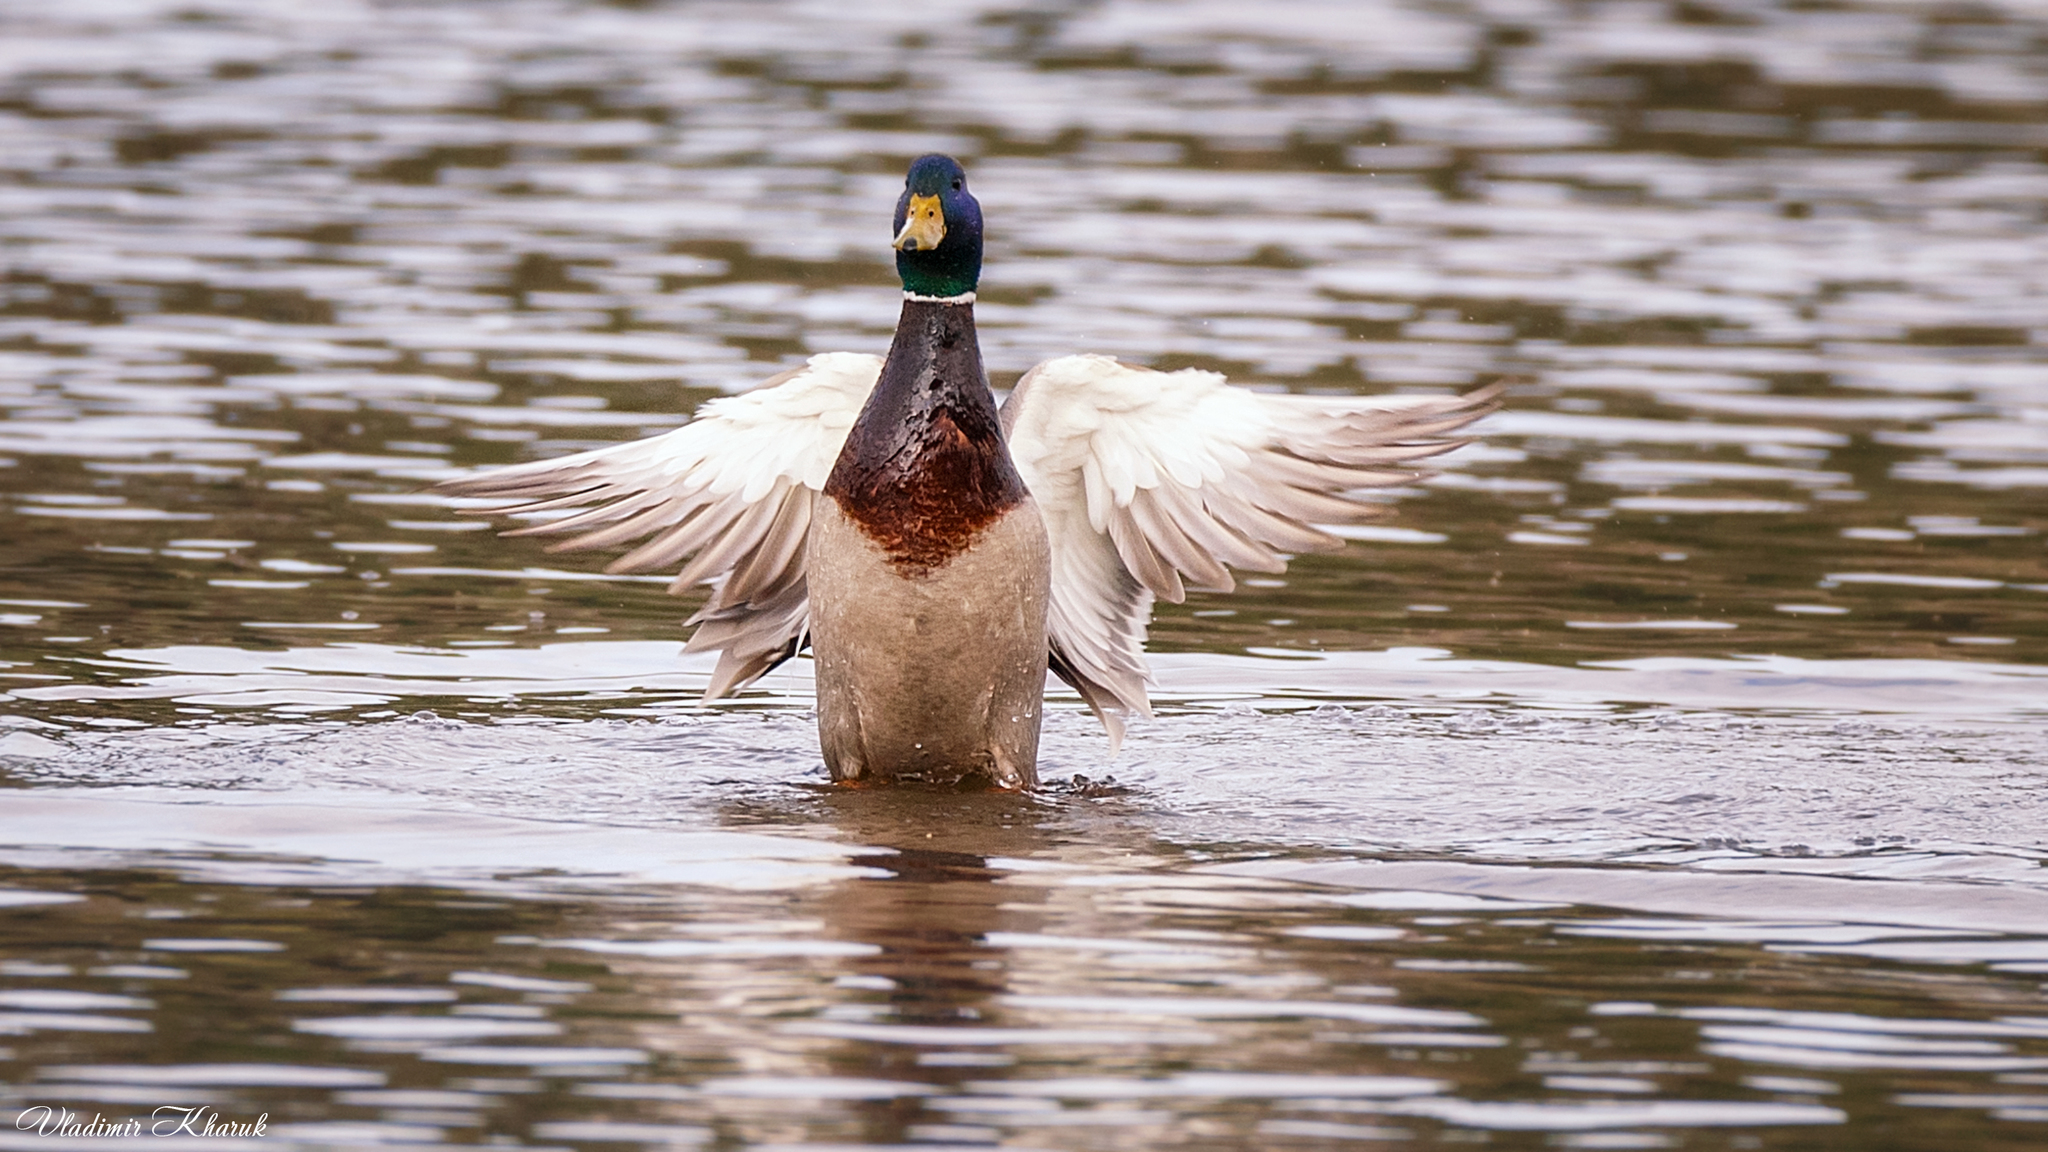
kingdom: Animalia
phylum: Chordata
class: Aves
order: Anseriformes
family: Anatidae
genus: Anas
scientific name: Anas platyrhynchos
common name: Mallard
